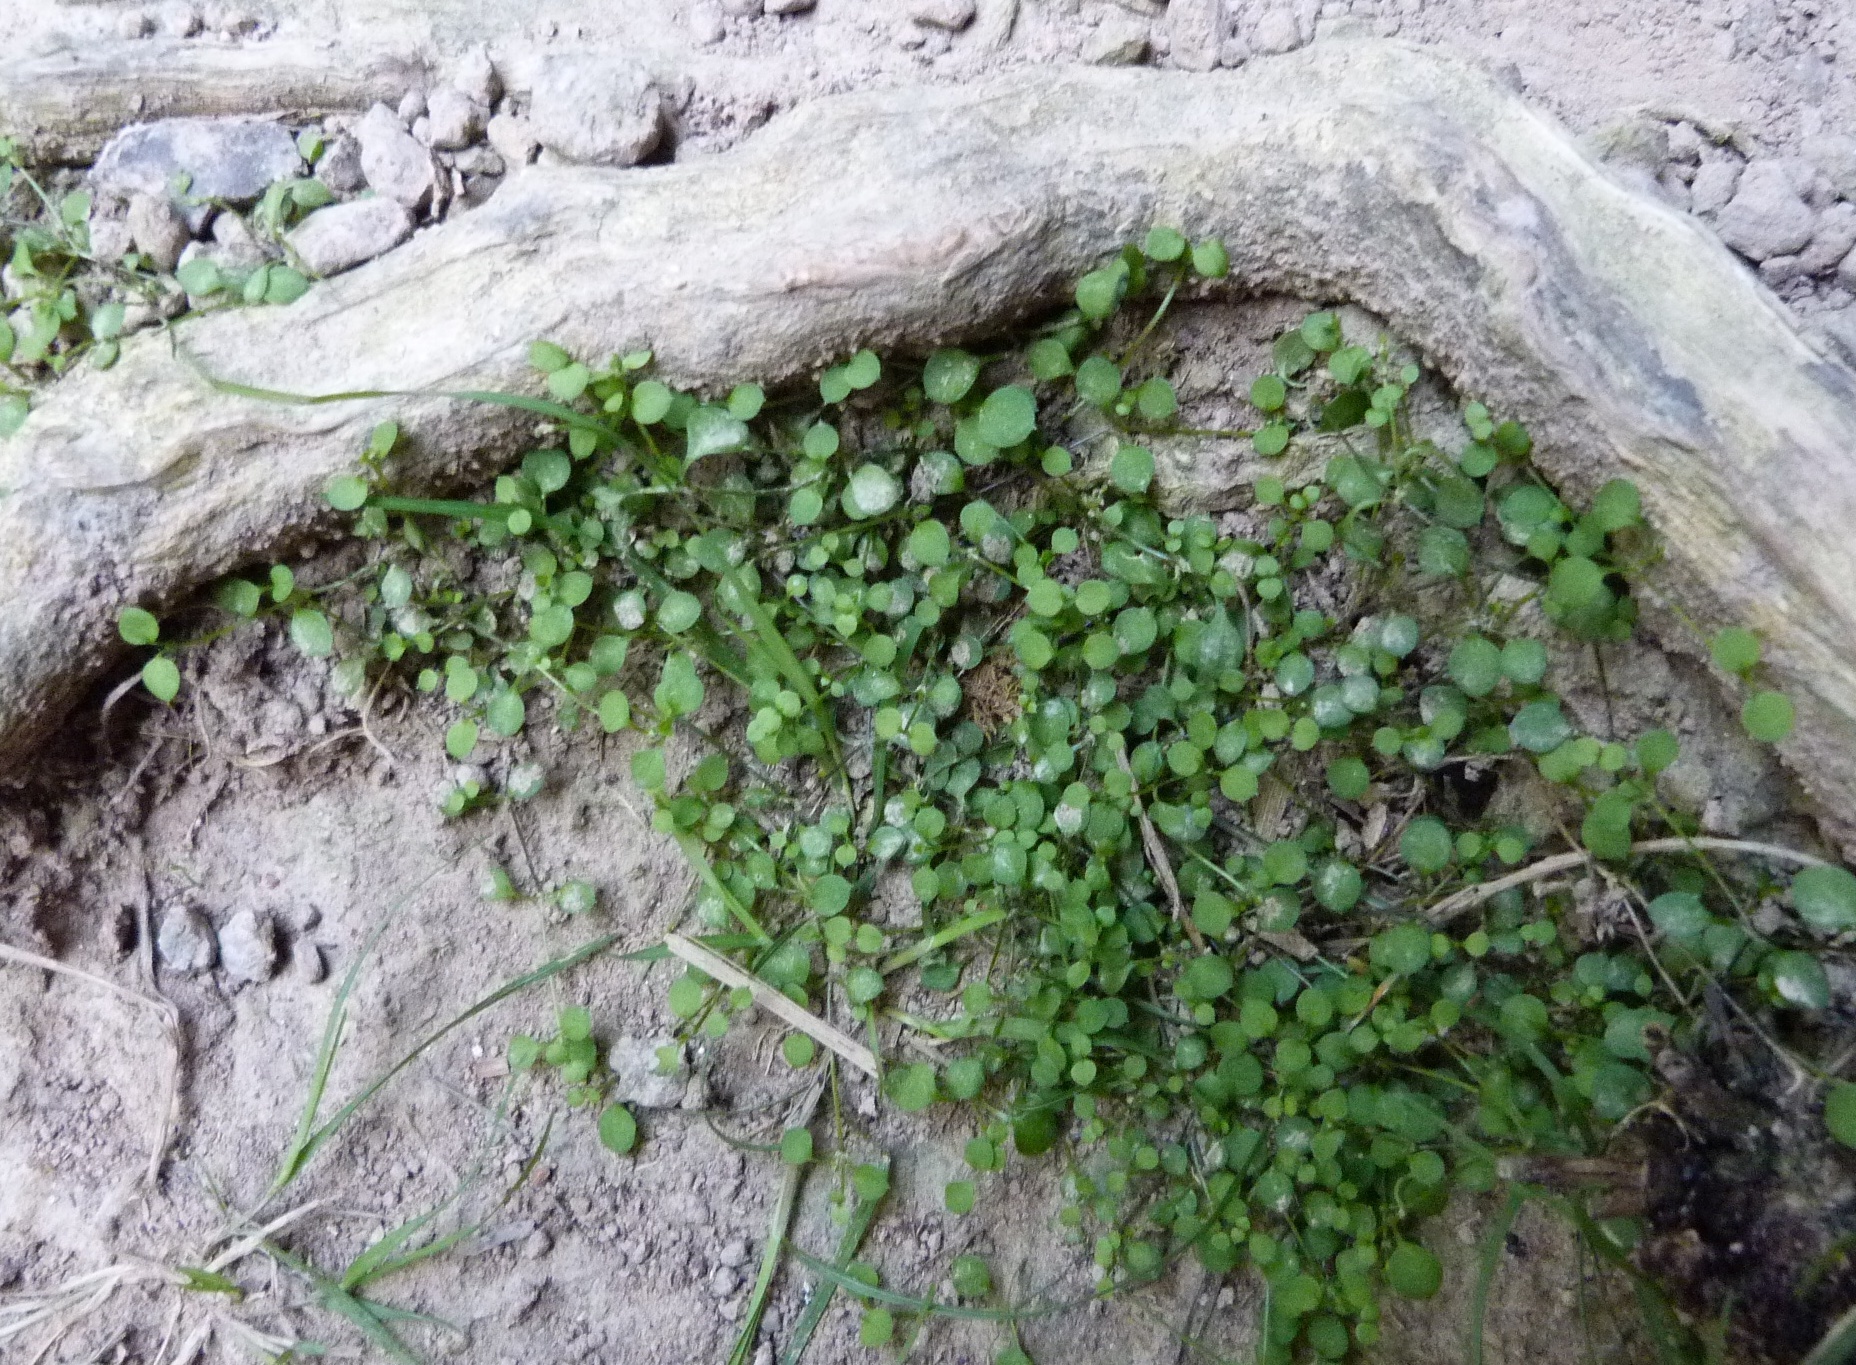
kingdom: Plantae
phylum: Tracheophyta
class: Magnoliopsida
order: Caryophyllales
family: Caryophyllaceae
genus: Stellaria
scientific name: Stellaria parviflora
